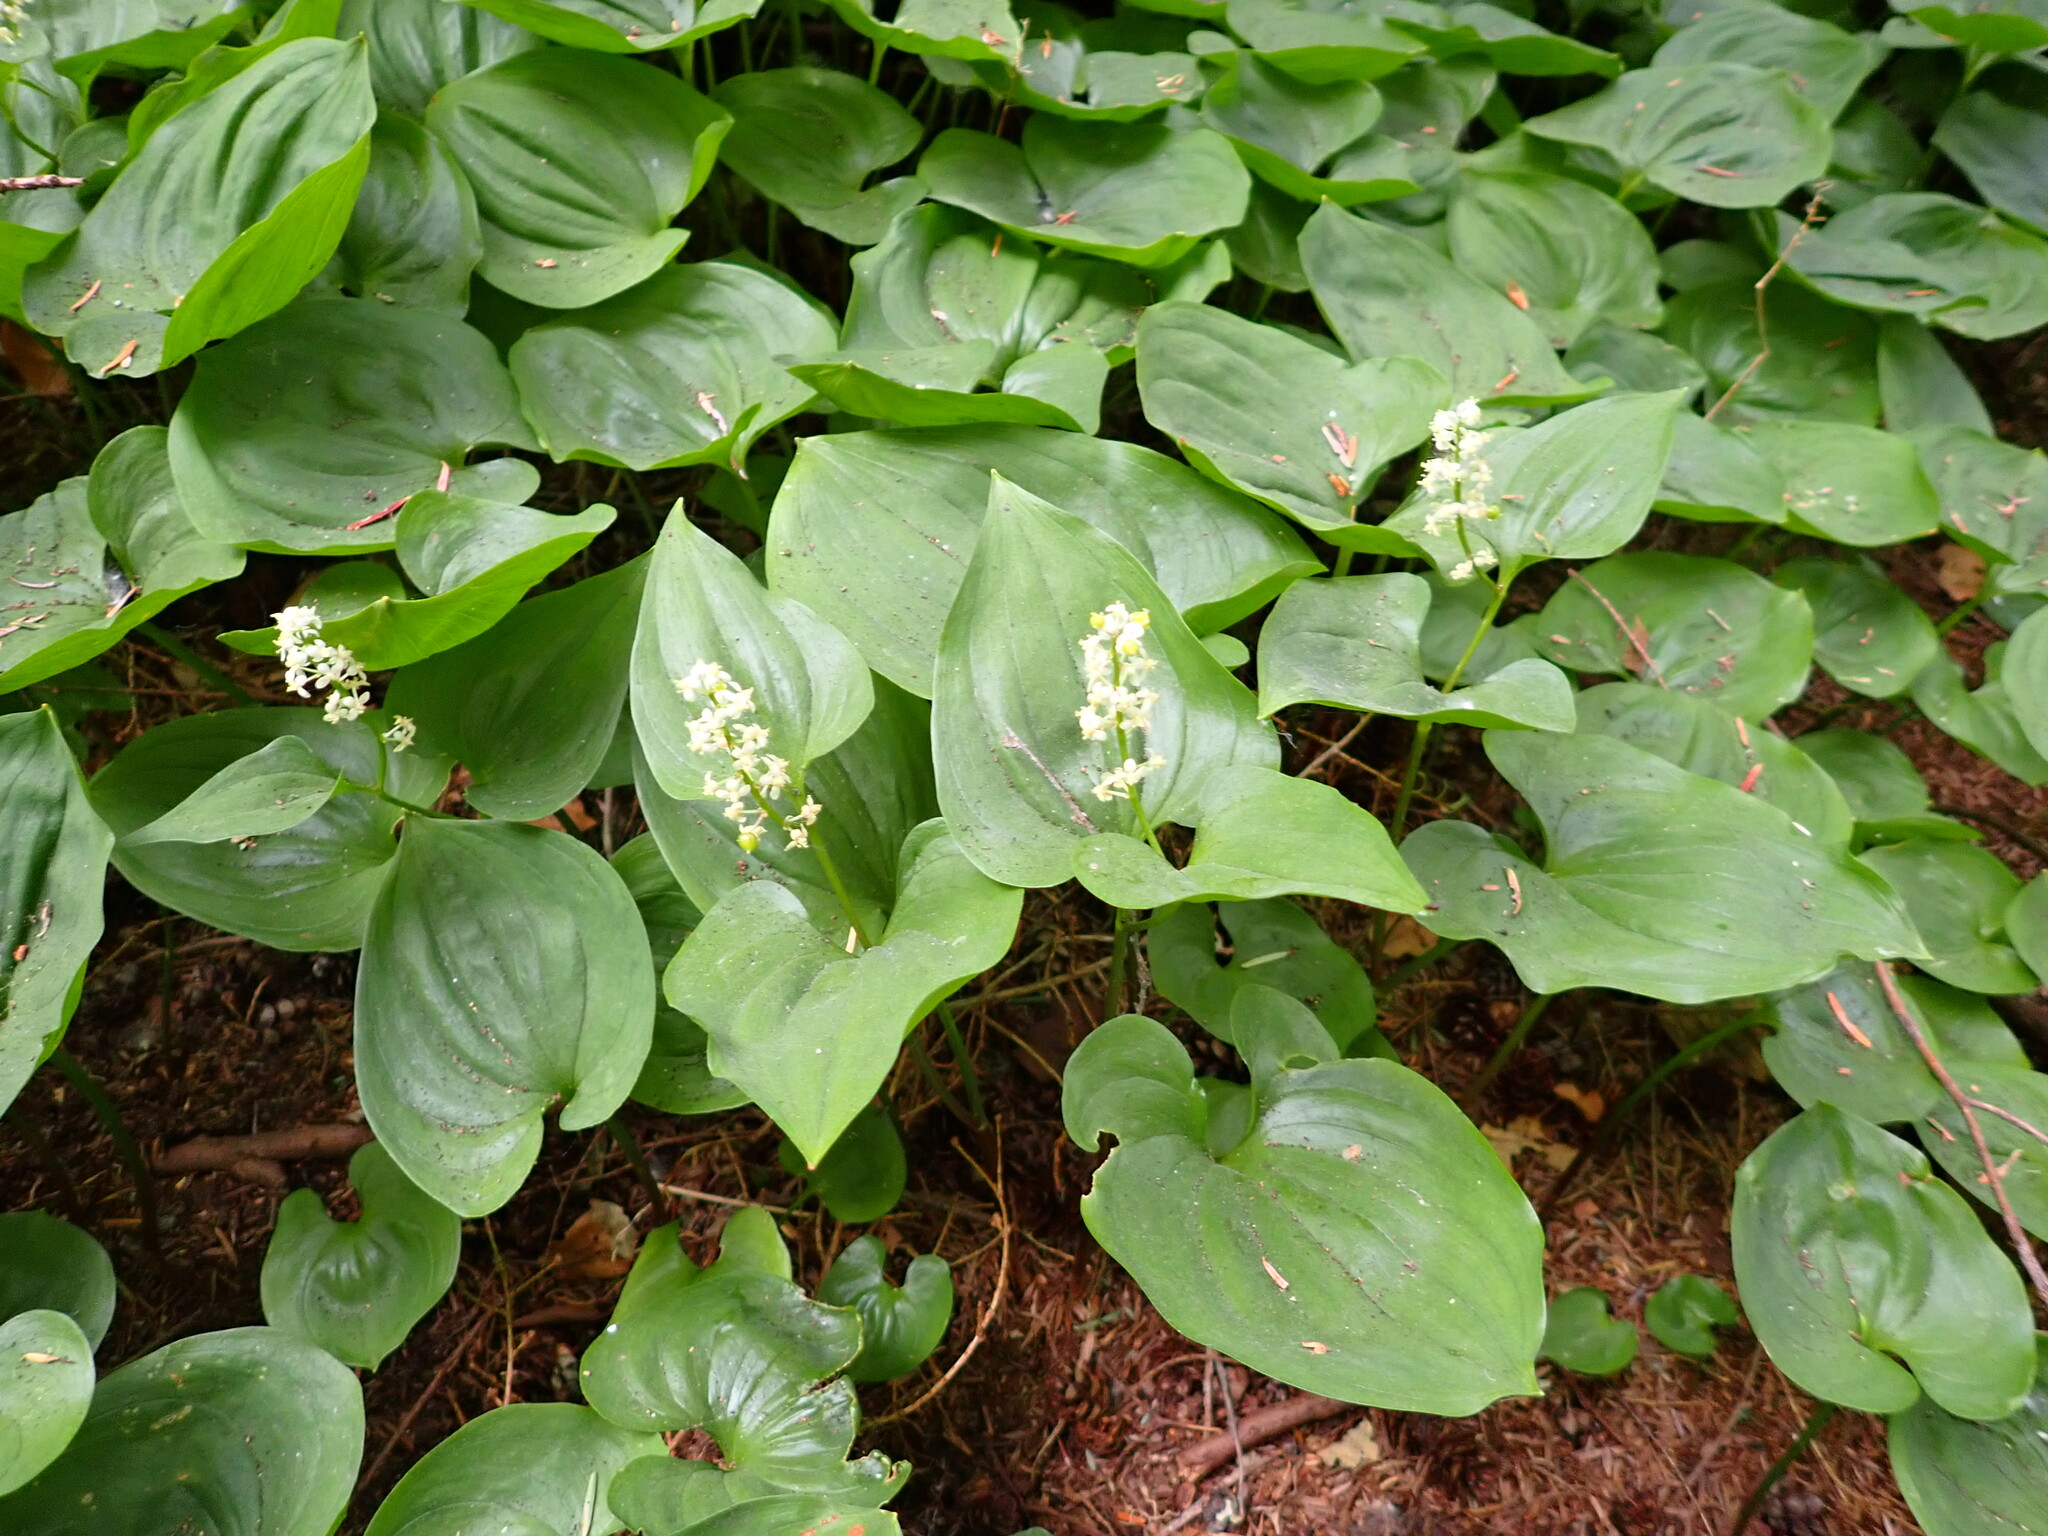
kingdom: Plantae
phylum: Tracheophyta
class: Liliopsida
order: Asparagales
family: Asparagaceae
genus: Maianthemum
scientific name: Maianthemum dilatatum
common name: False lily-of-the-valley
